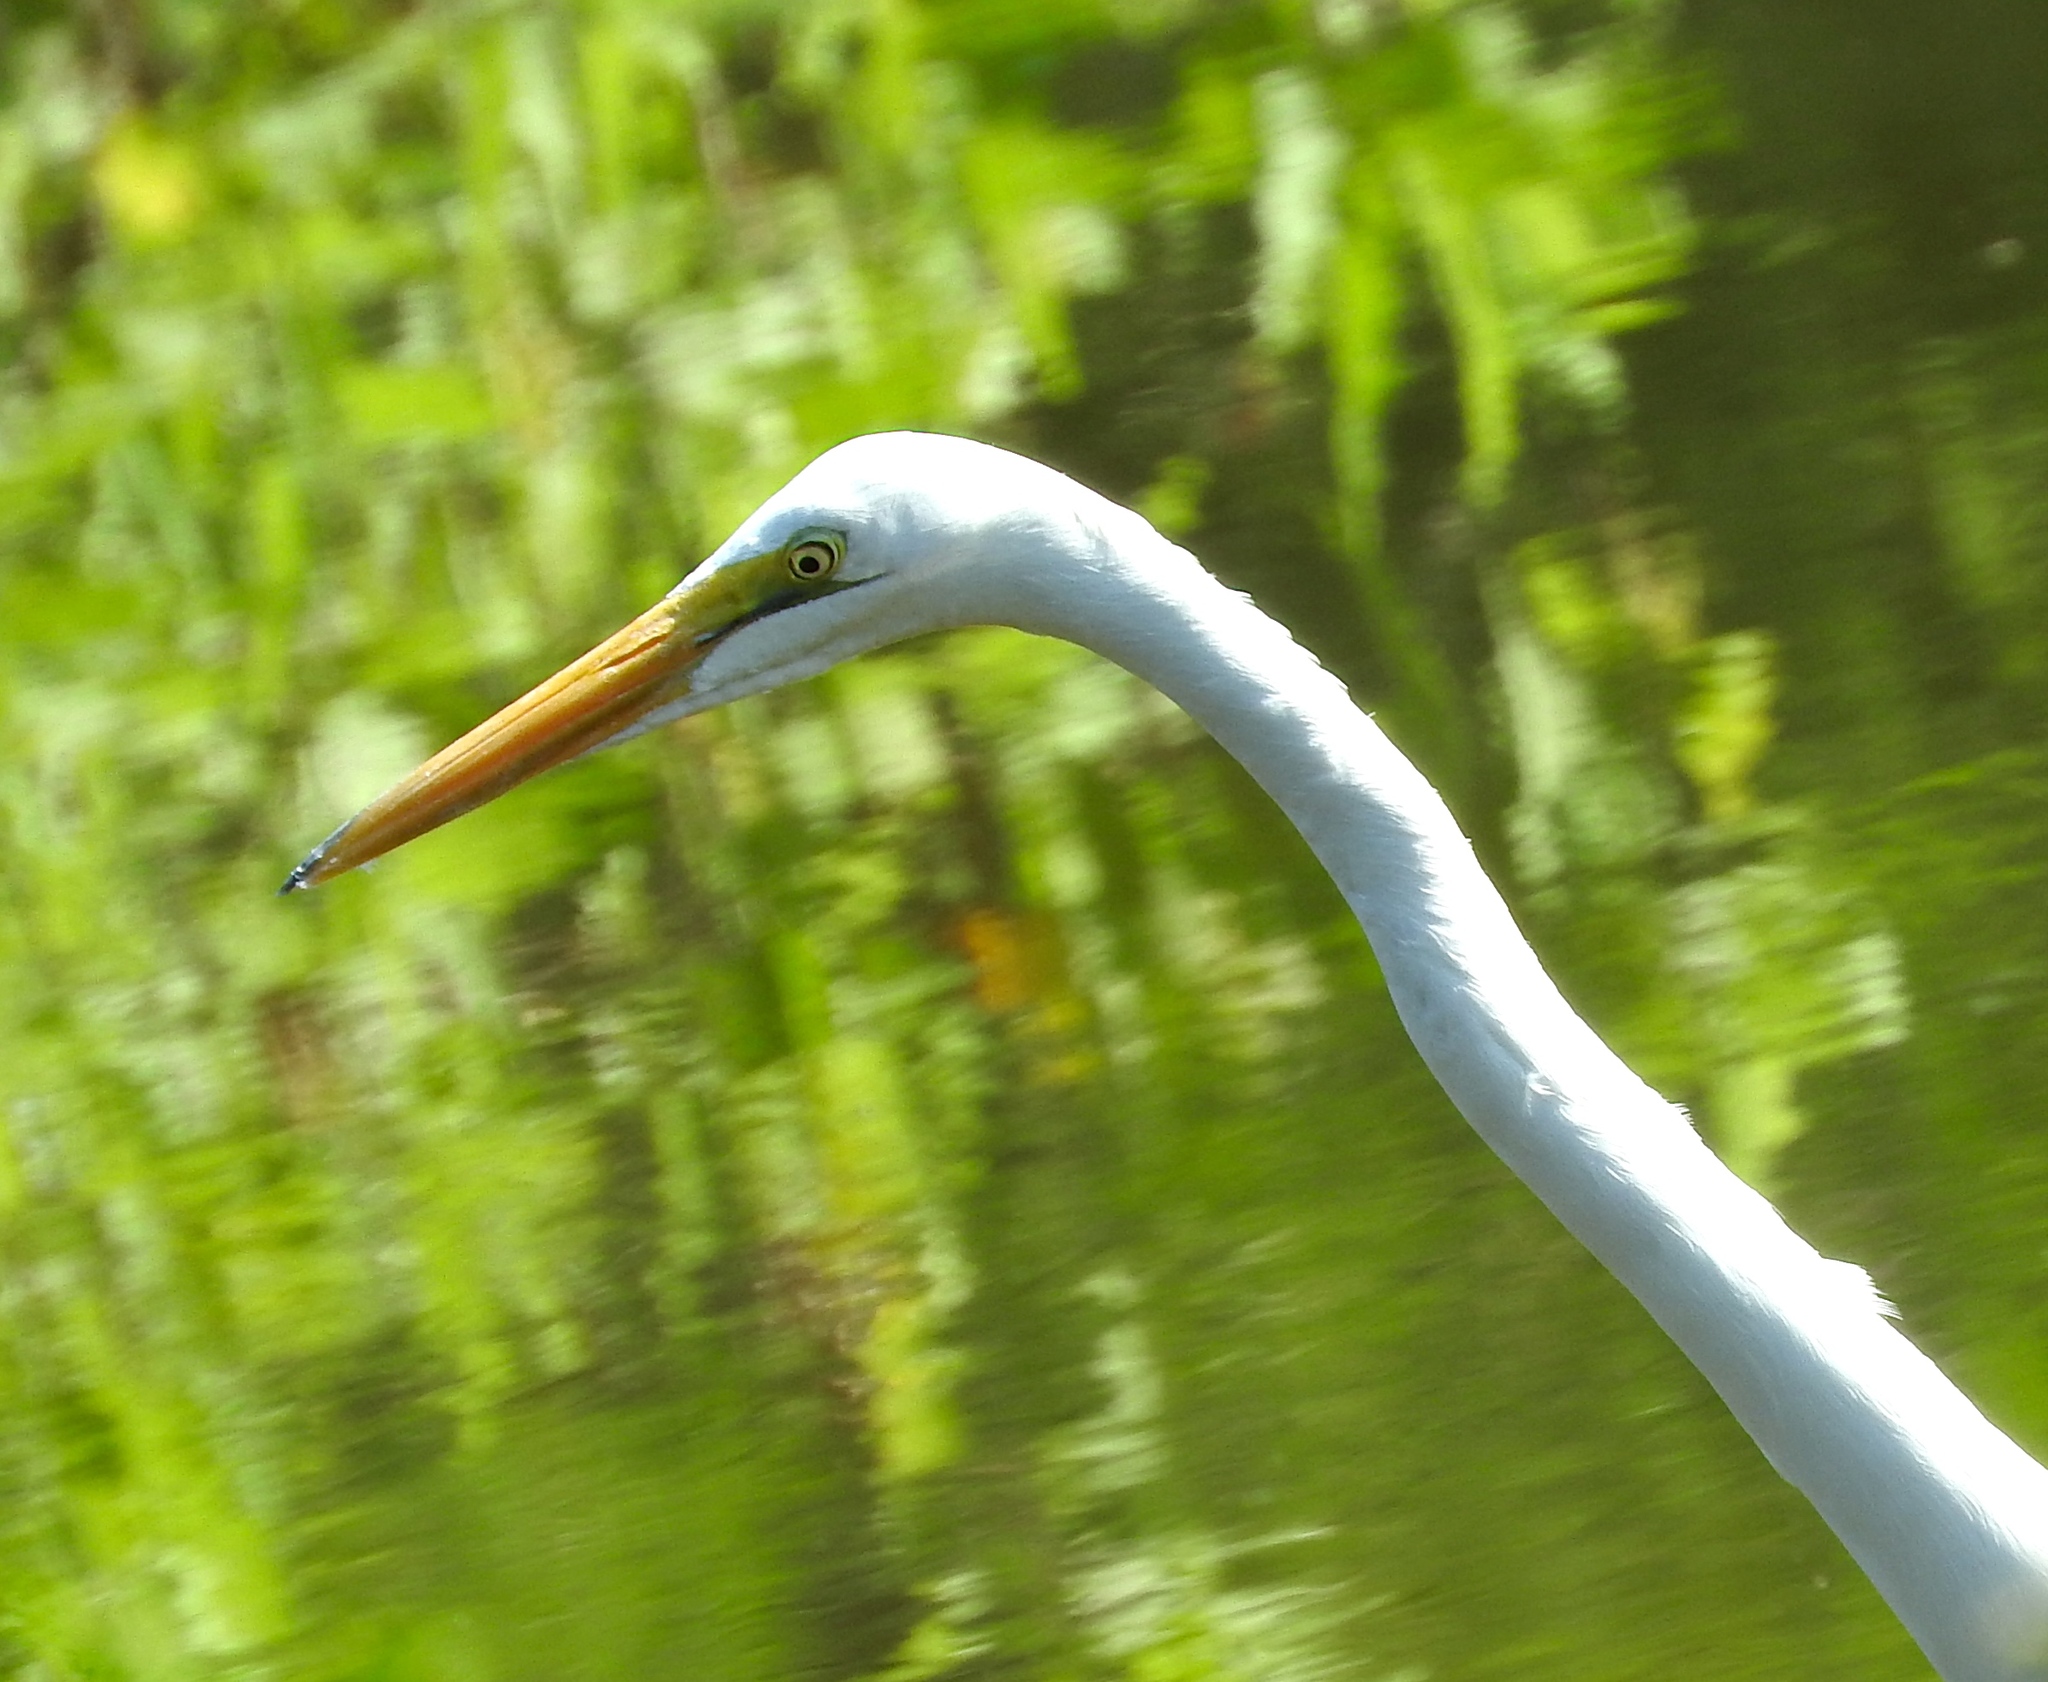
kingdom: Animalia
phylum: Chordata
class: Aves
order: Pelecaniformes
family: Ardeidae
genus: Ardea
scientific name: Ardea alba
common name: Great egret
